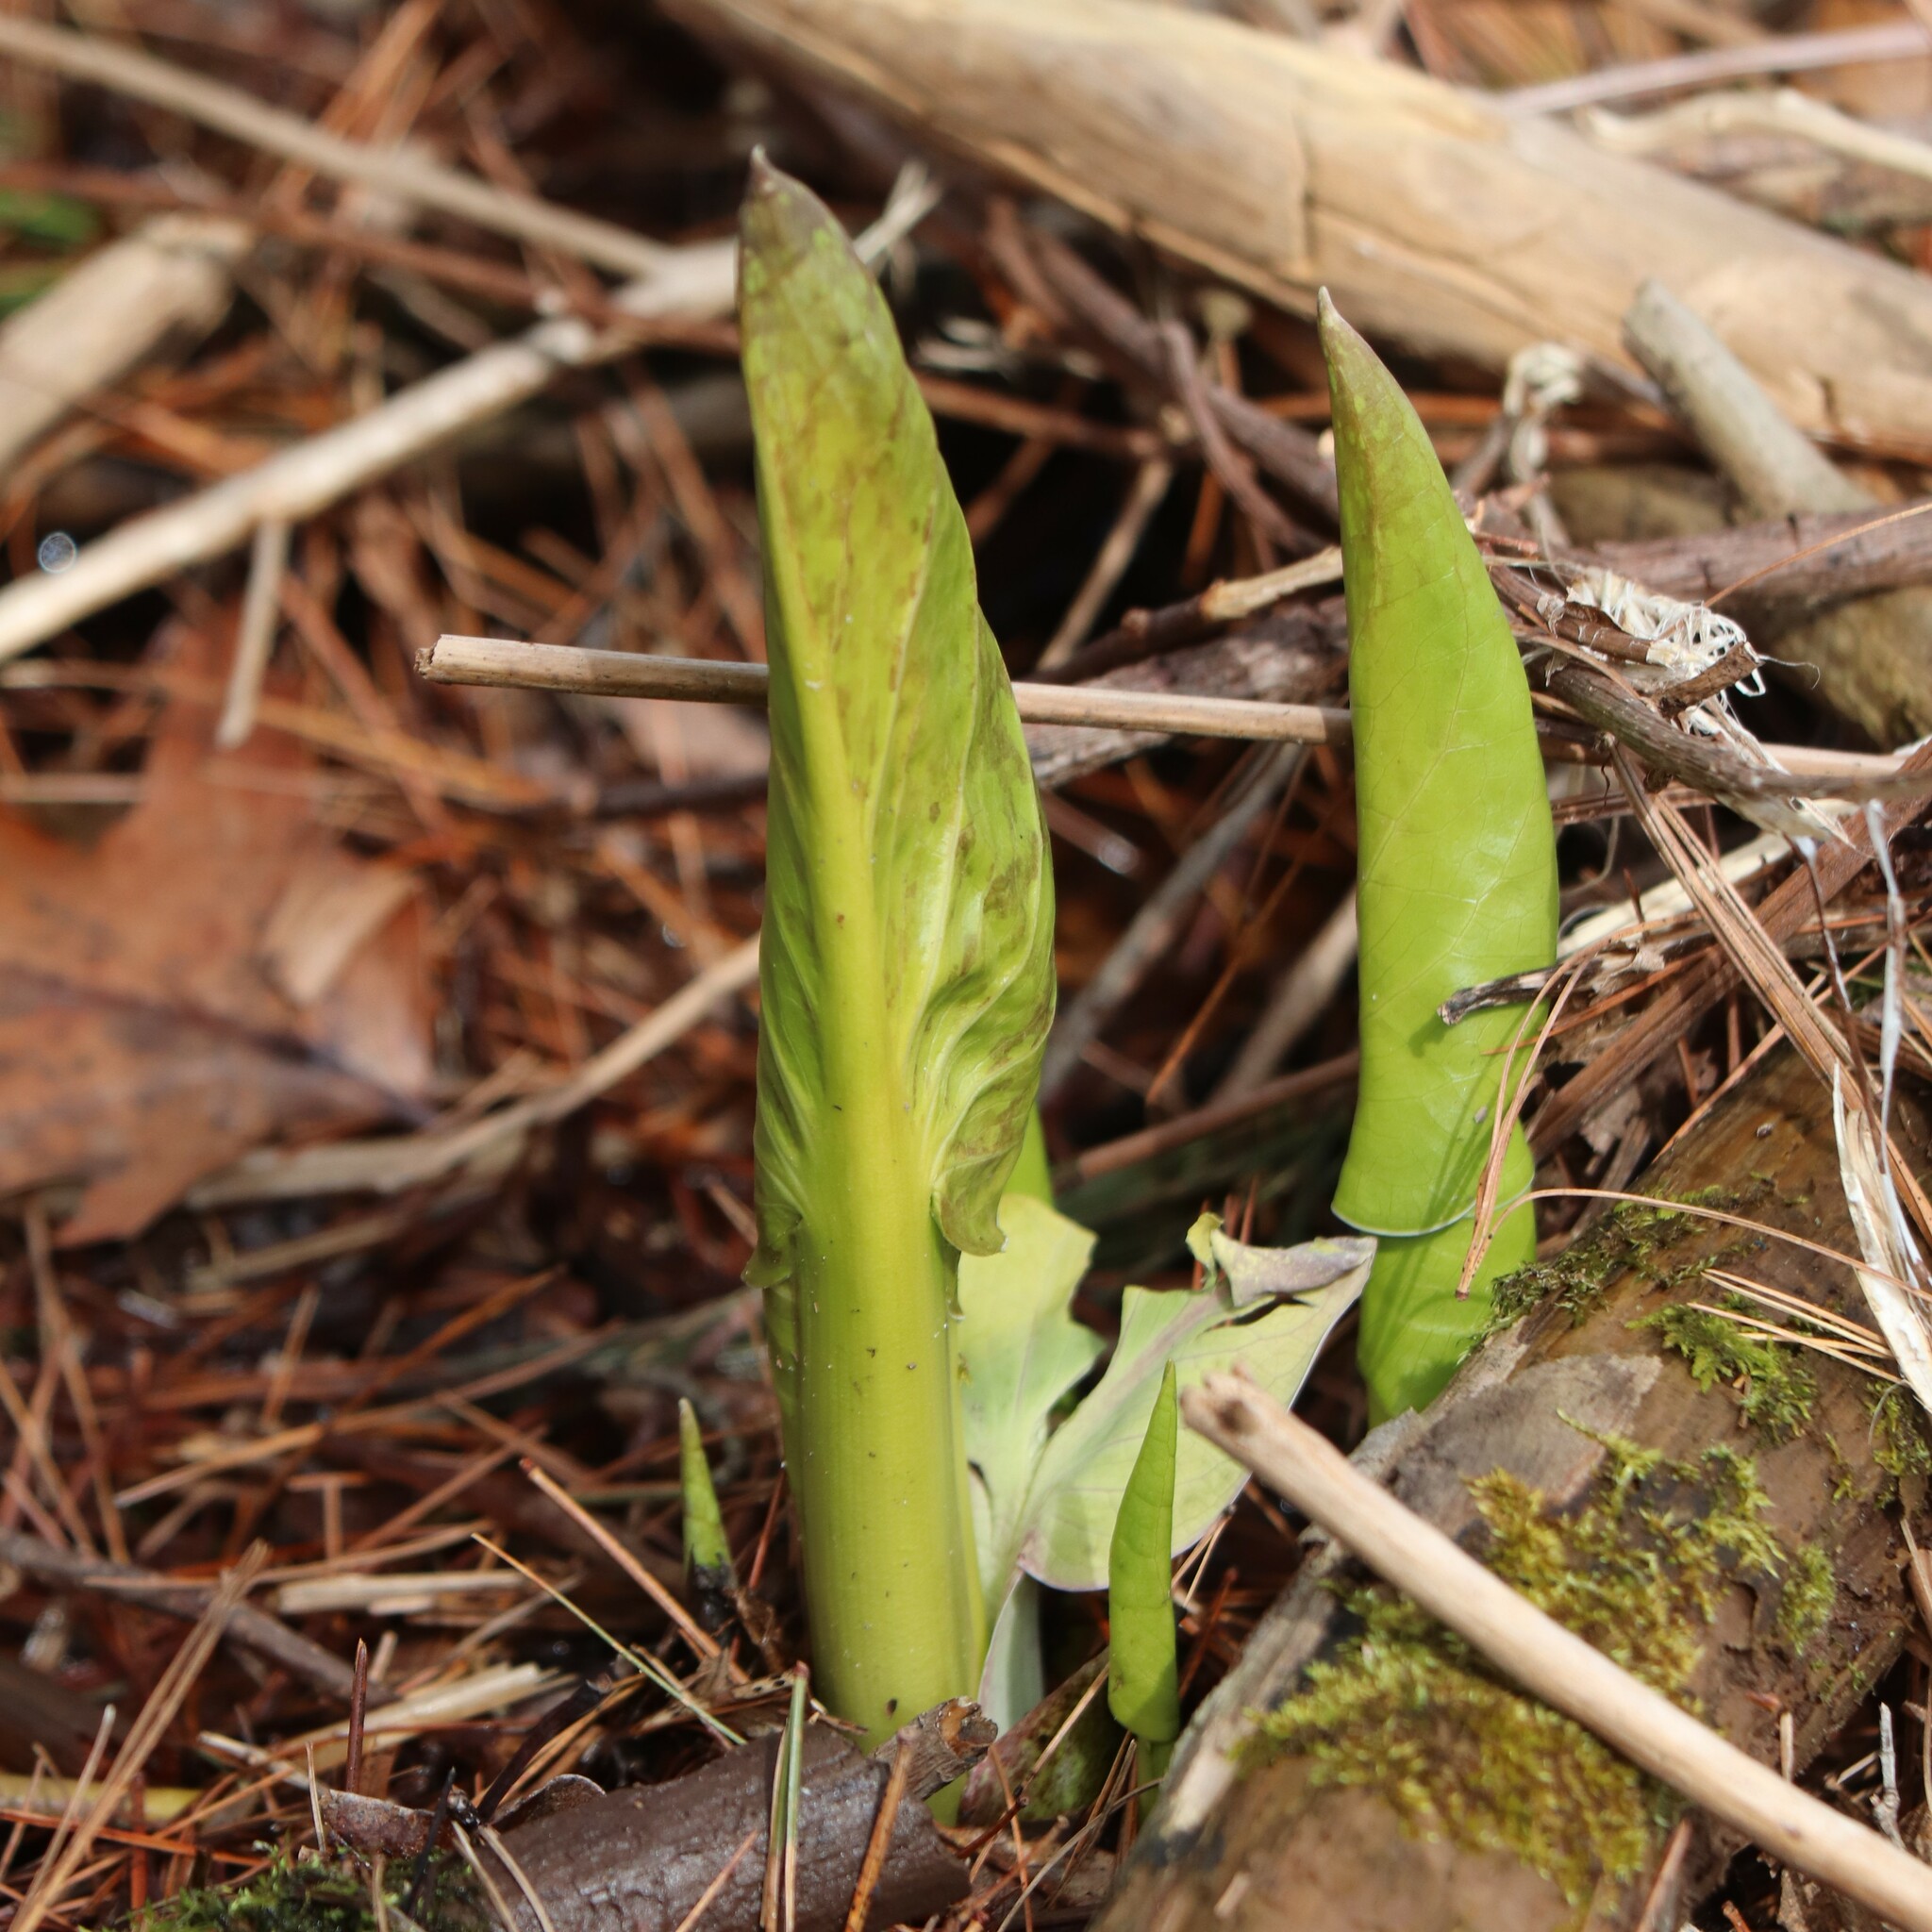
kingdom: Plantae
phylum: Tracheophyta
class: Liliopsida
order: Alismatales
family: Araceae
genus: Symplocarpus
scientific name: Symplocarpus foetidus
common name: Eastern skunk cabbage
